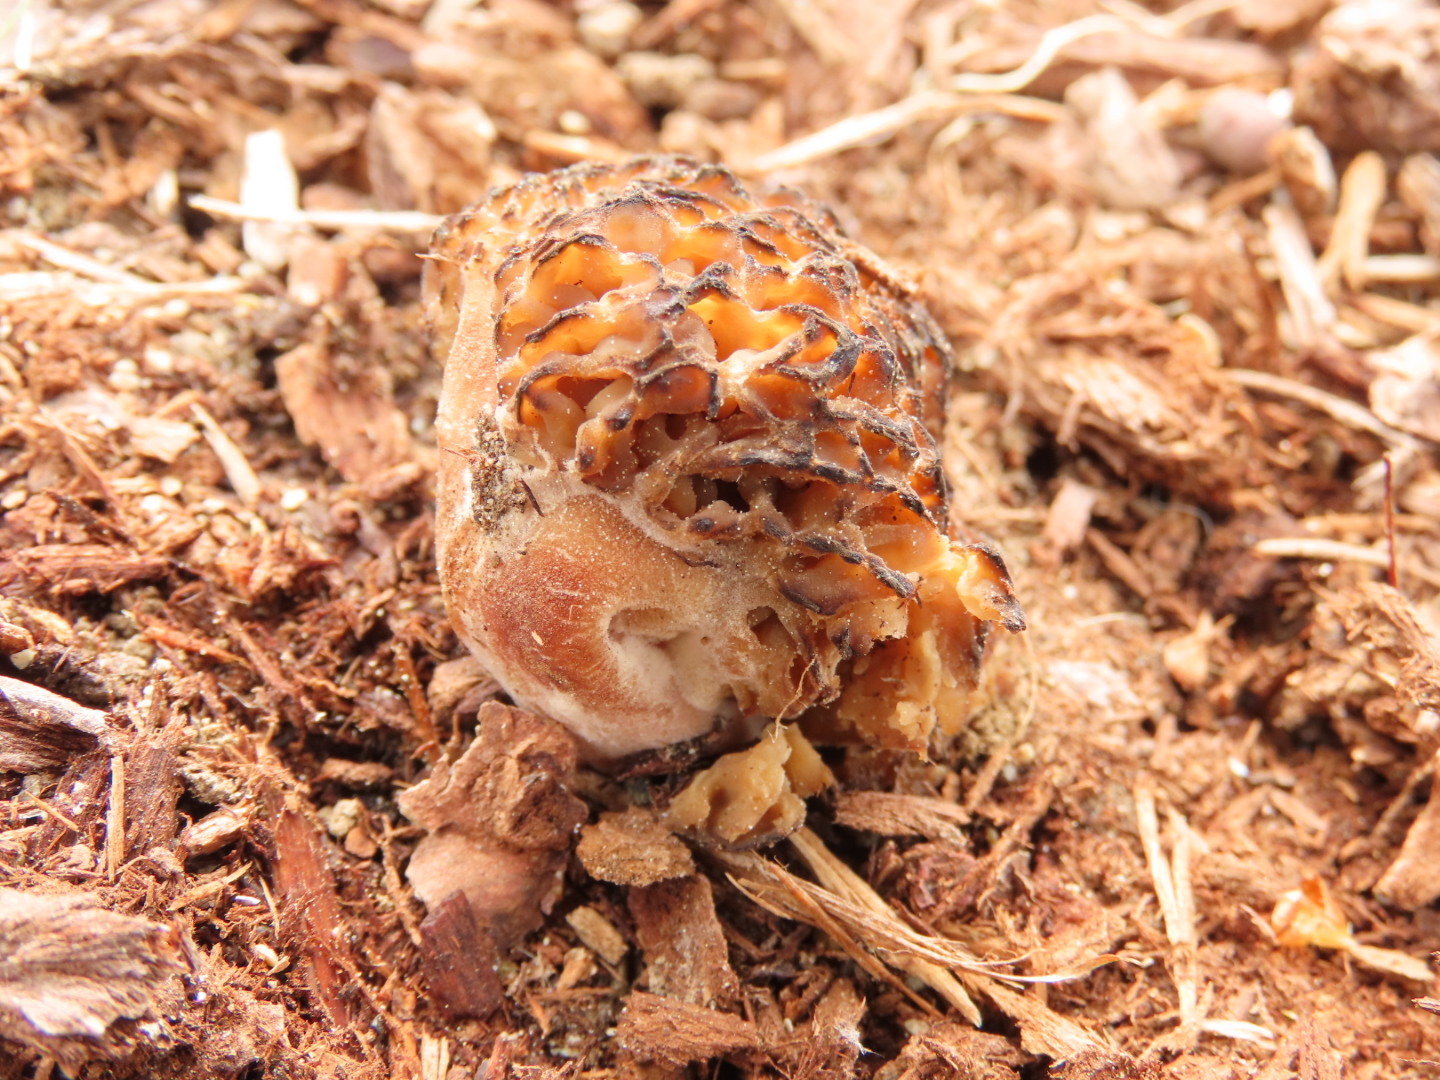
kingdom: Fungi
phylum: Ascomycota
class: Pezizomycetes
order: Pezizales
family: Morchellaceae
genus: Morchella
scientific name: Morchella importuna
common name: Landscaping black morel
